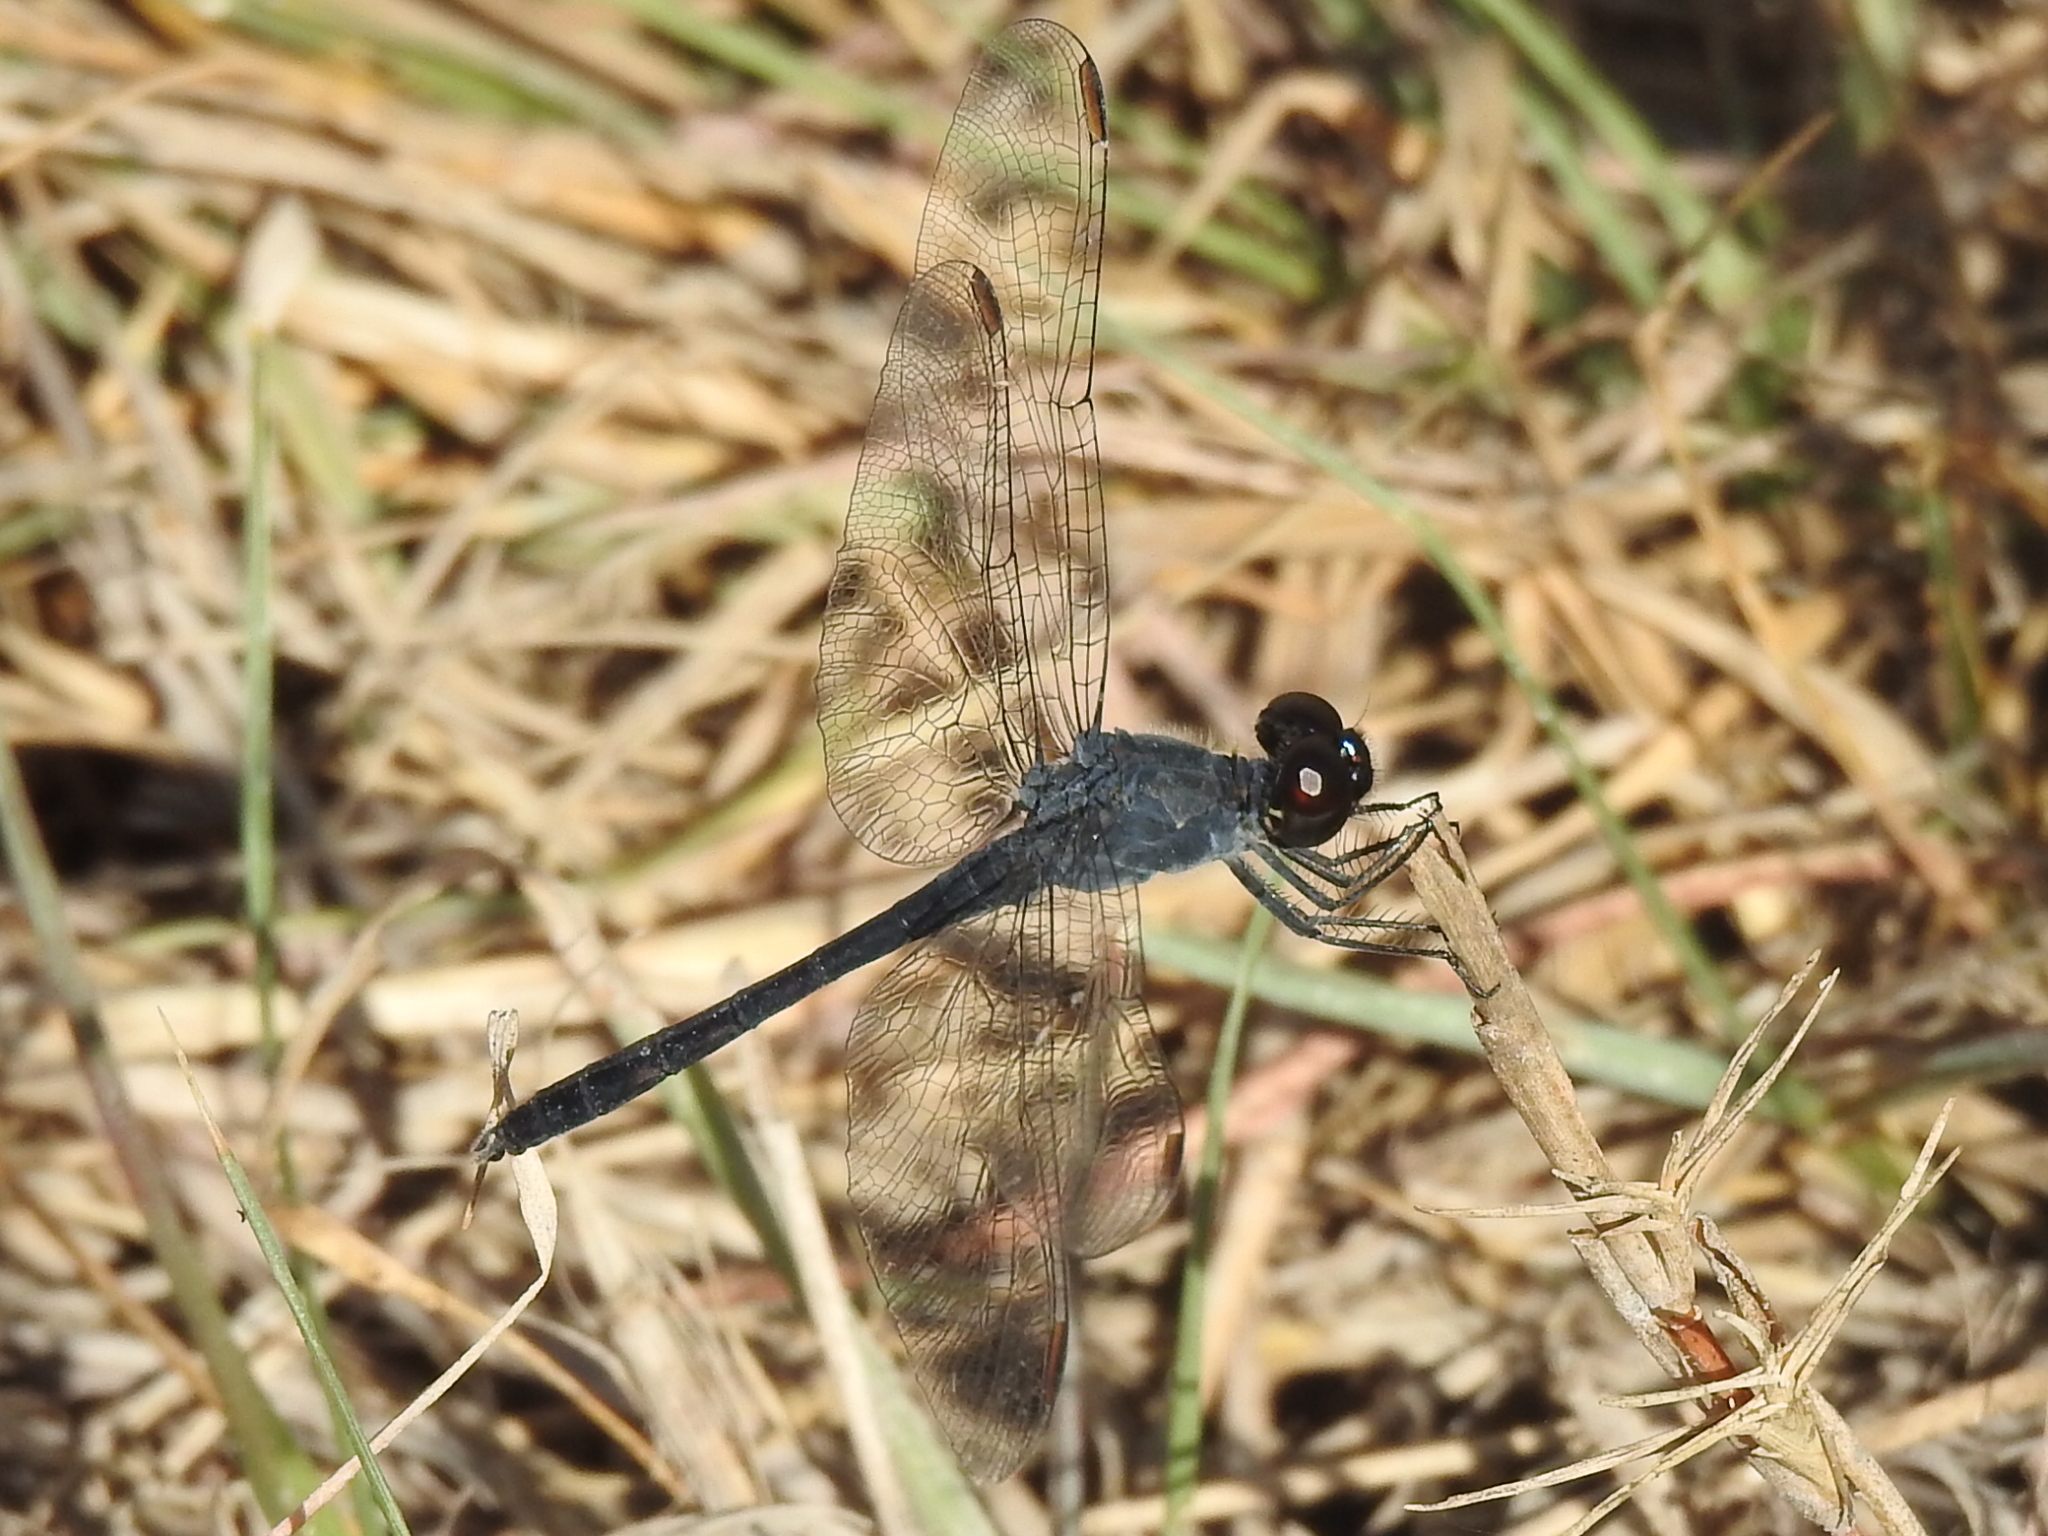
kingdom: Animalia
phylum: Arthropoda
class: Insecta
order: Odonata
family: Libellulidae
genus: Erythrodiplax
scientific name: Erythrodiplax berenice
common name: Seaside dragonlet
